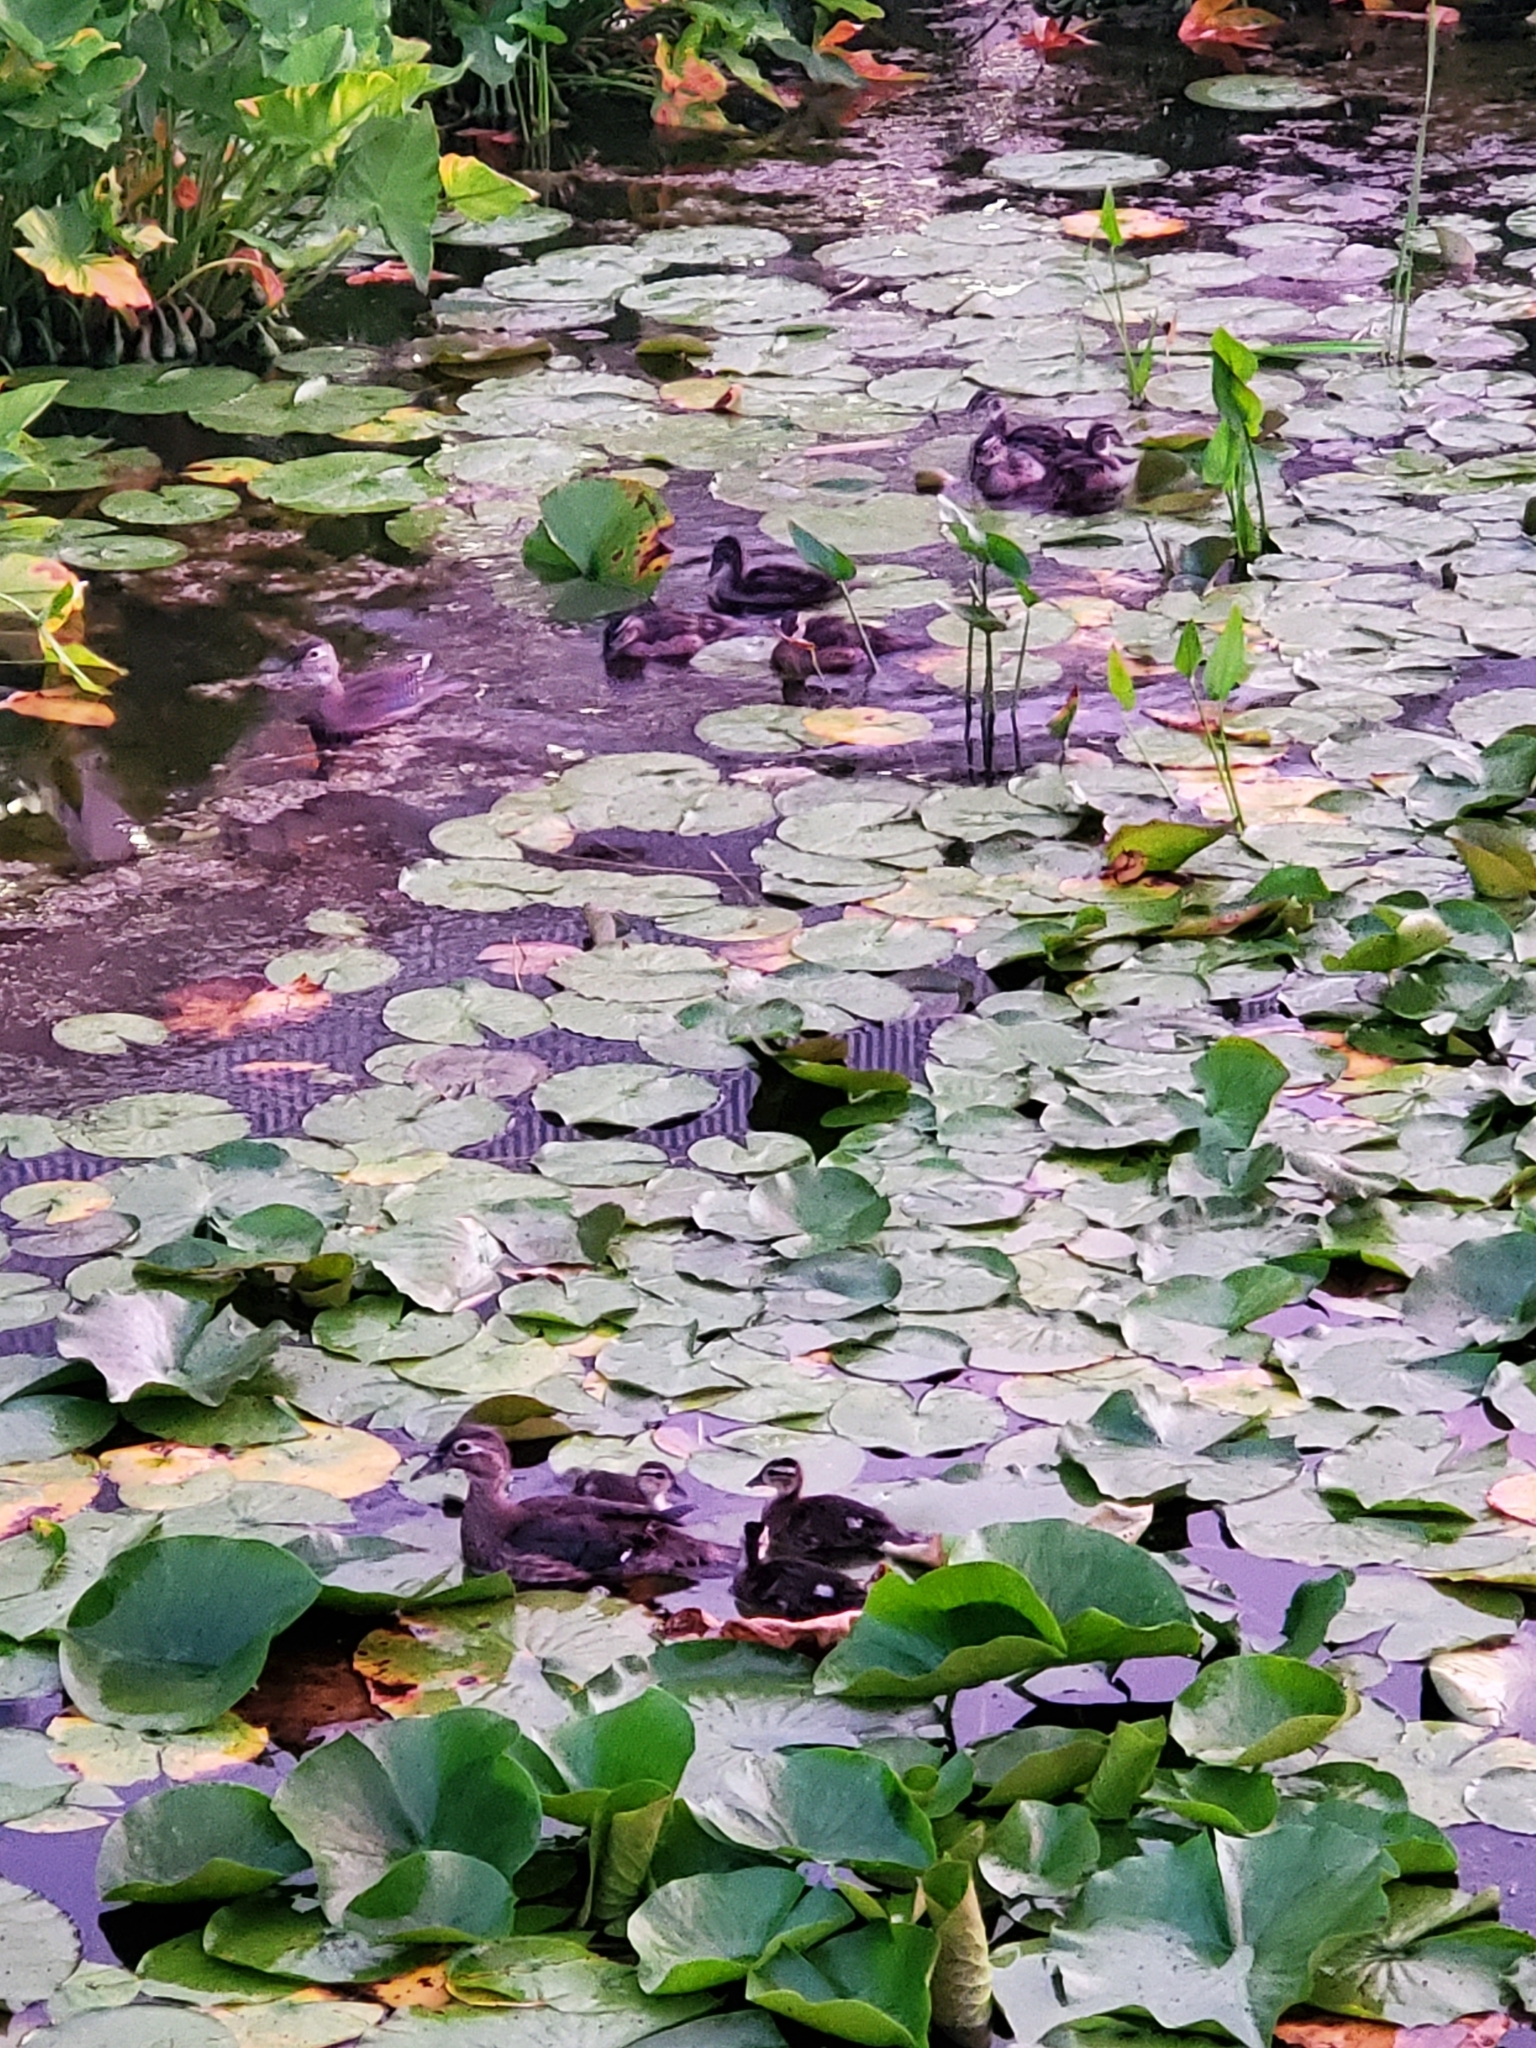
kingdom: Animalia
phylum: Chordata
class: Aves
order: Anseriformes
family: Anatidae
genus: Aix
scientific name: Aix sponsa
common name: Wood duck
